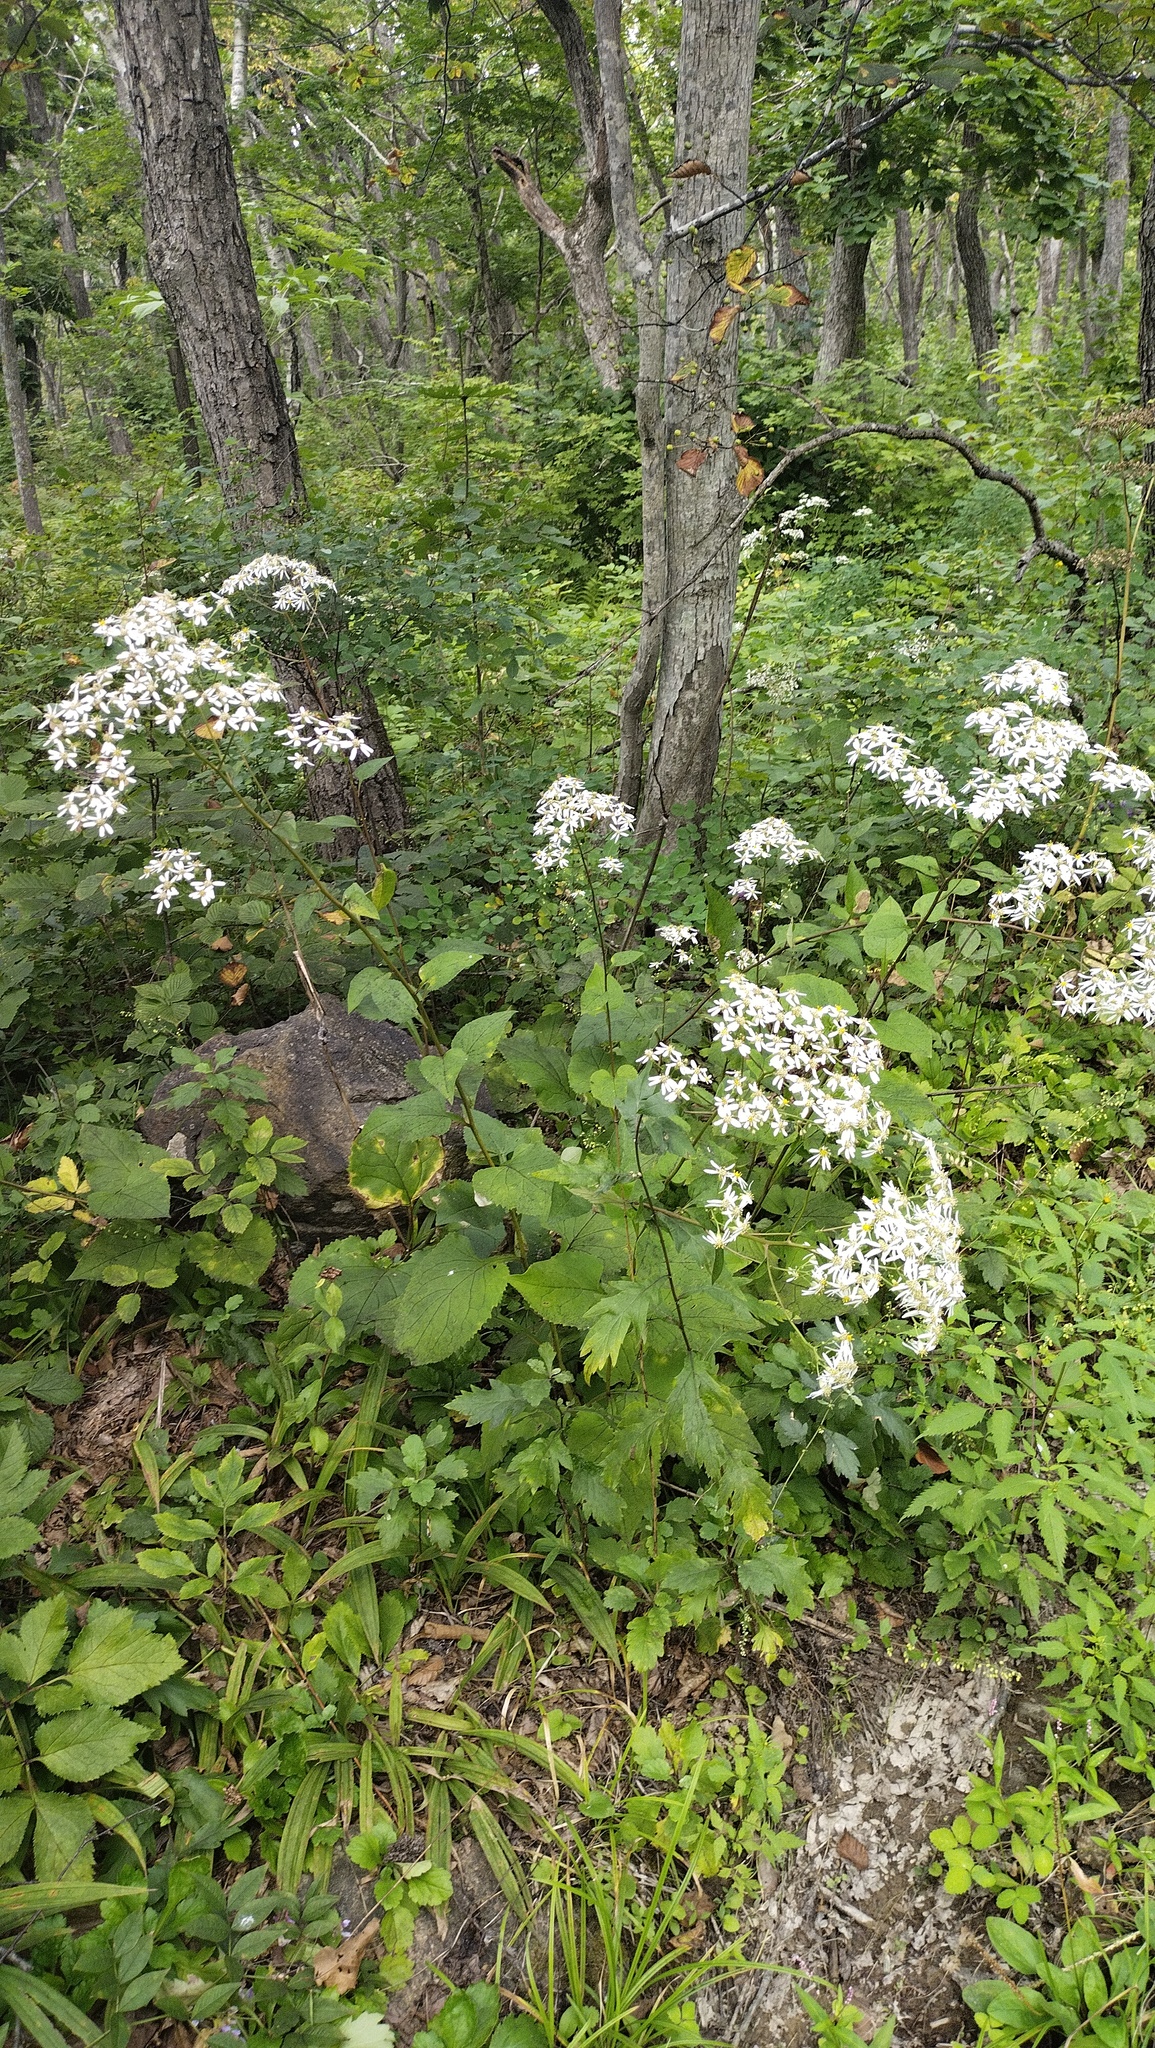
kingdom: Plantae
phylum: Tracheophyta
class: Magnoliopsida
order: Asterales
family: Asteraceae
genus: Aster
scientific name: Aster scaber
